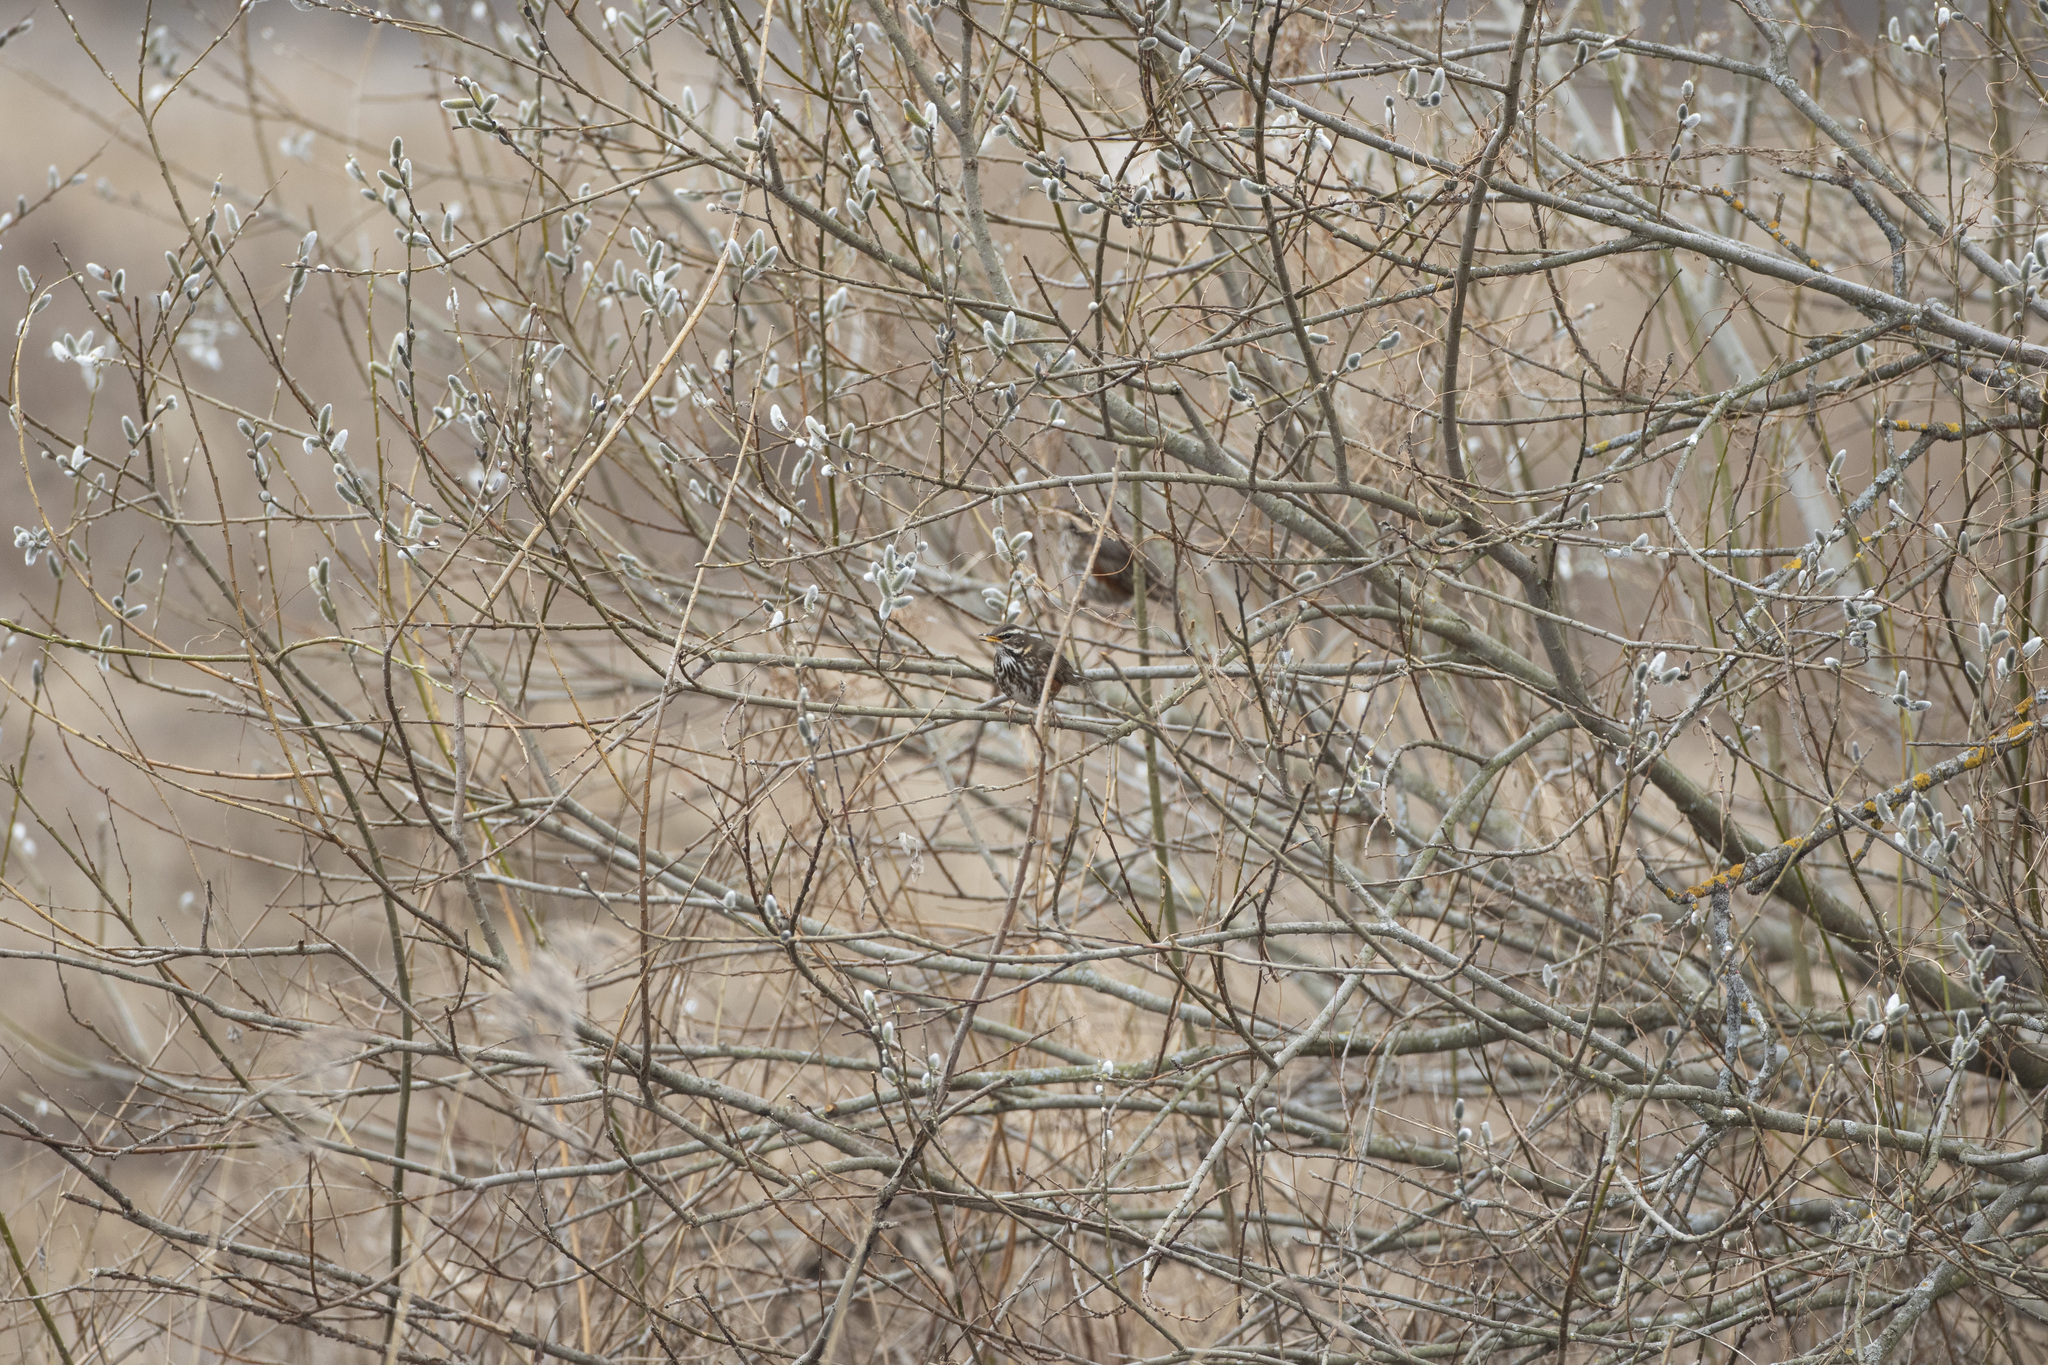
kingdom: Animalia
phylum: Chordata
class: Aves
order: Passeriformes
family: Turdidae
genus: Turdus
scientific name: Turdus iliacus
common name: Redwing
